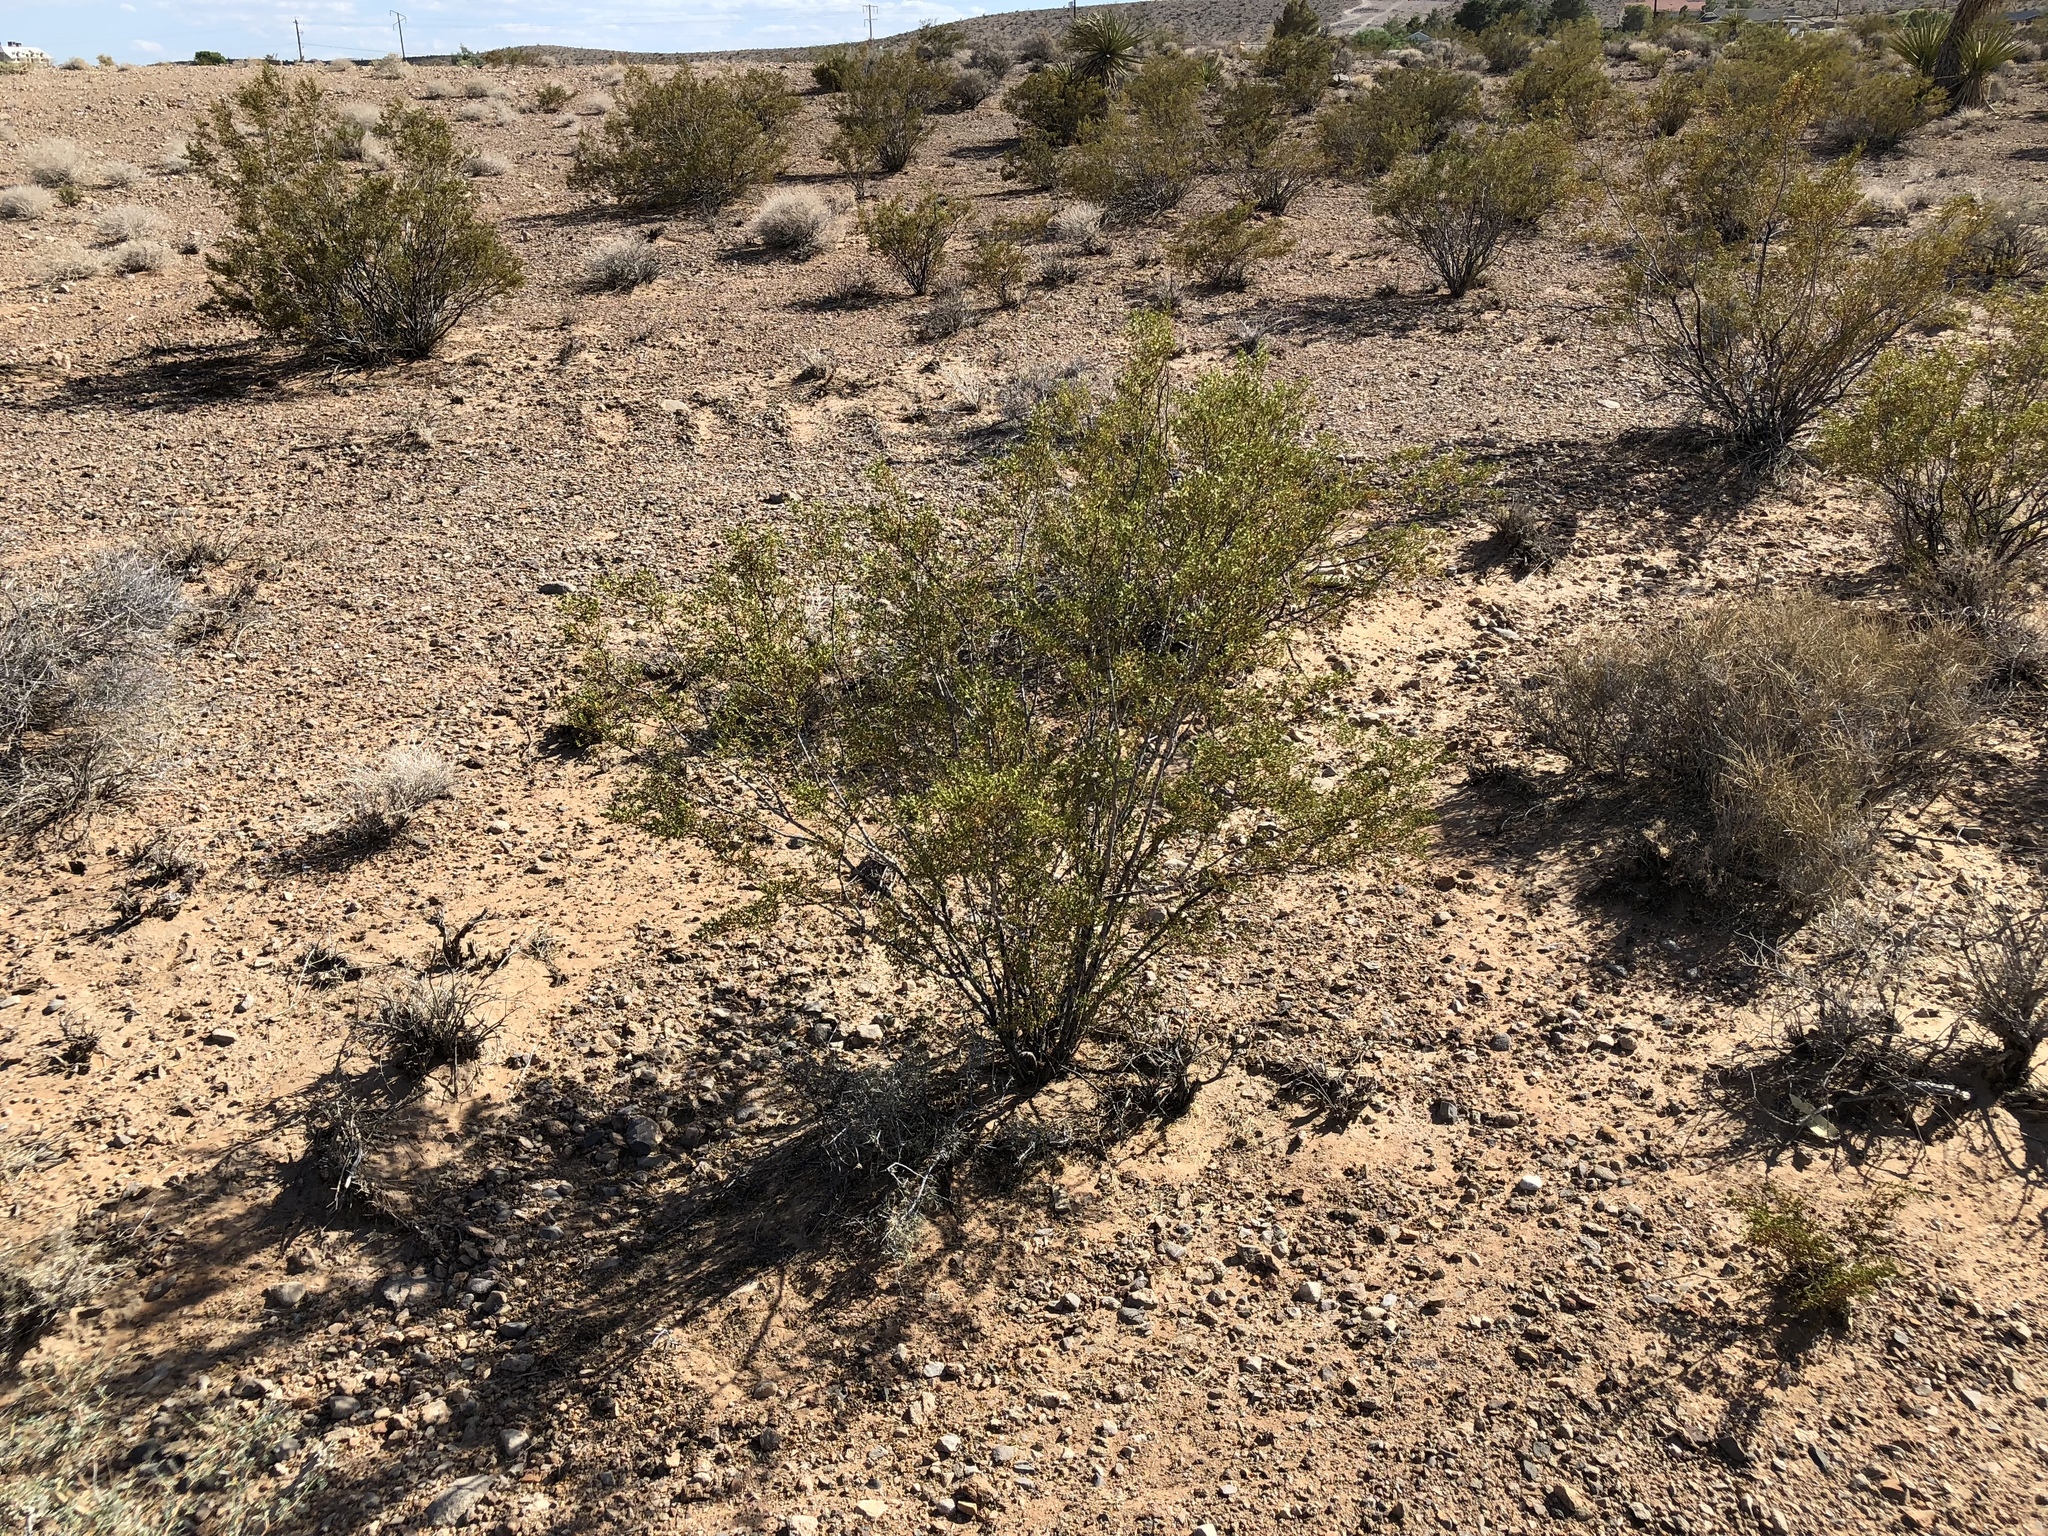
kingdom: Plantae
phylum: Tracheophyta
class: Magnoliopsida
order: Zygophyllales
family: Zygophyllaceae
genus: Larrea
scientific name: Larrea tridentata
